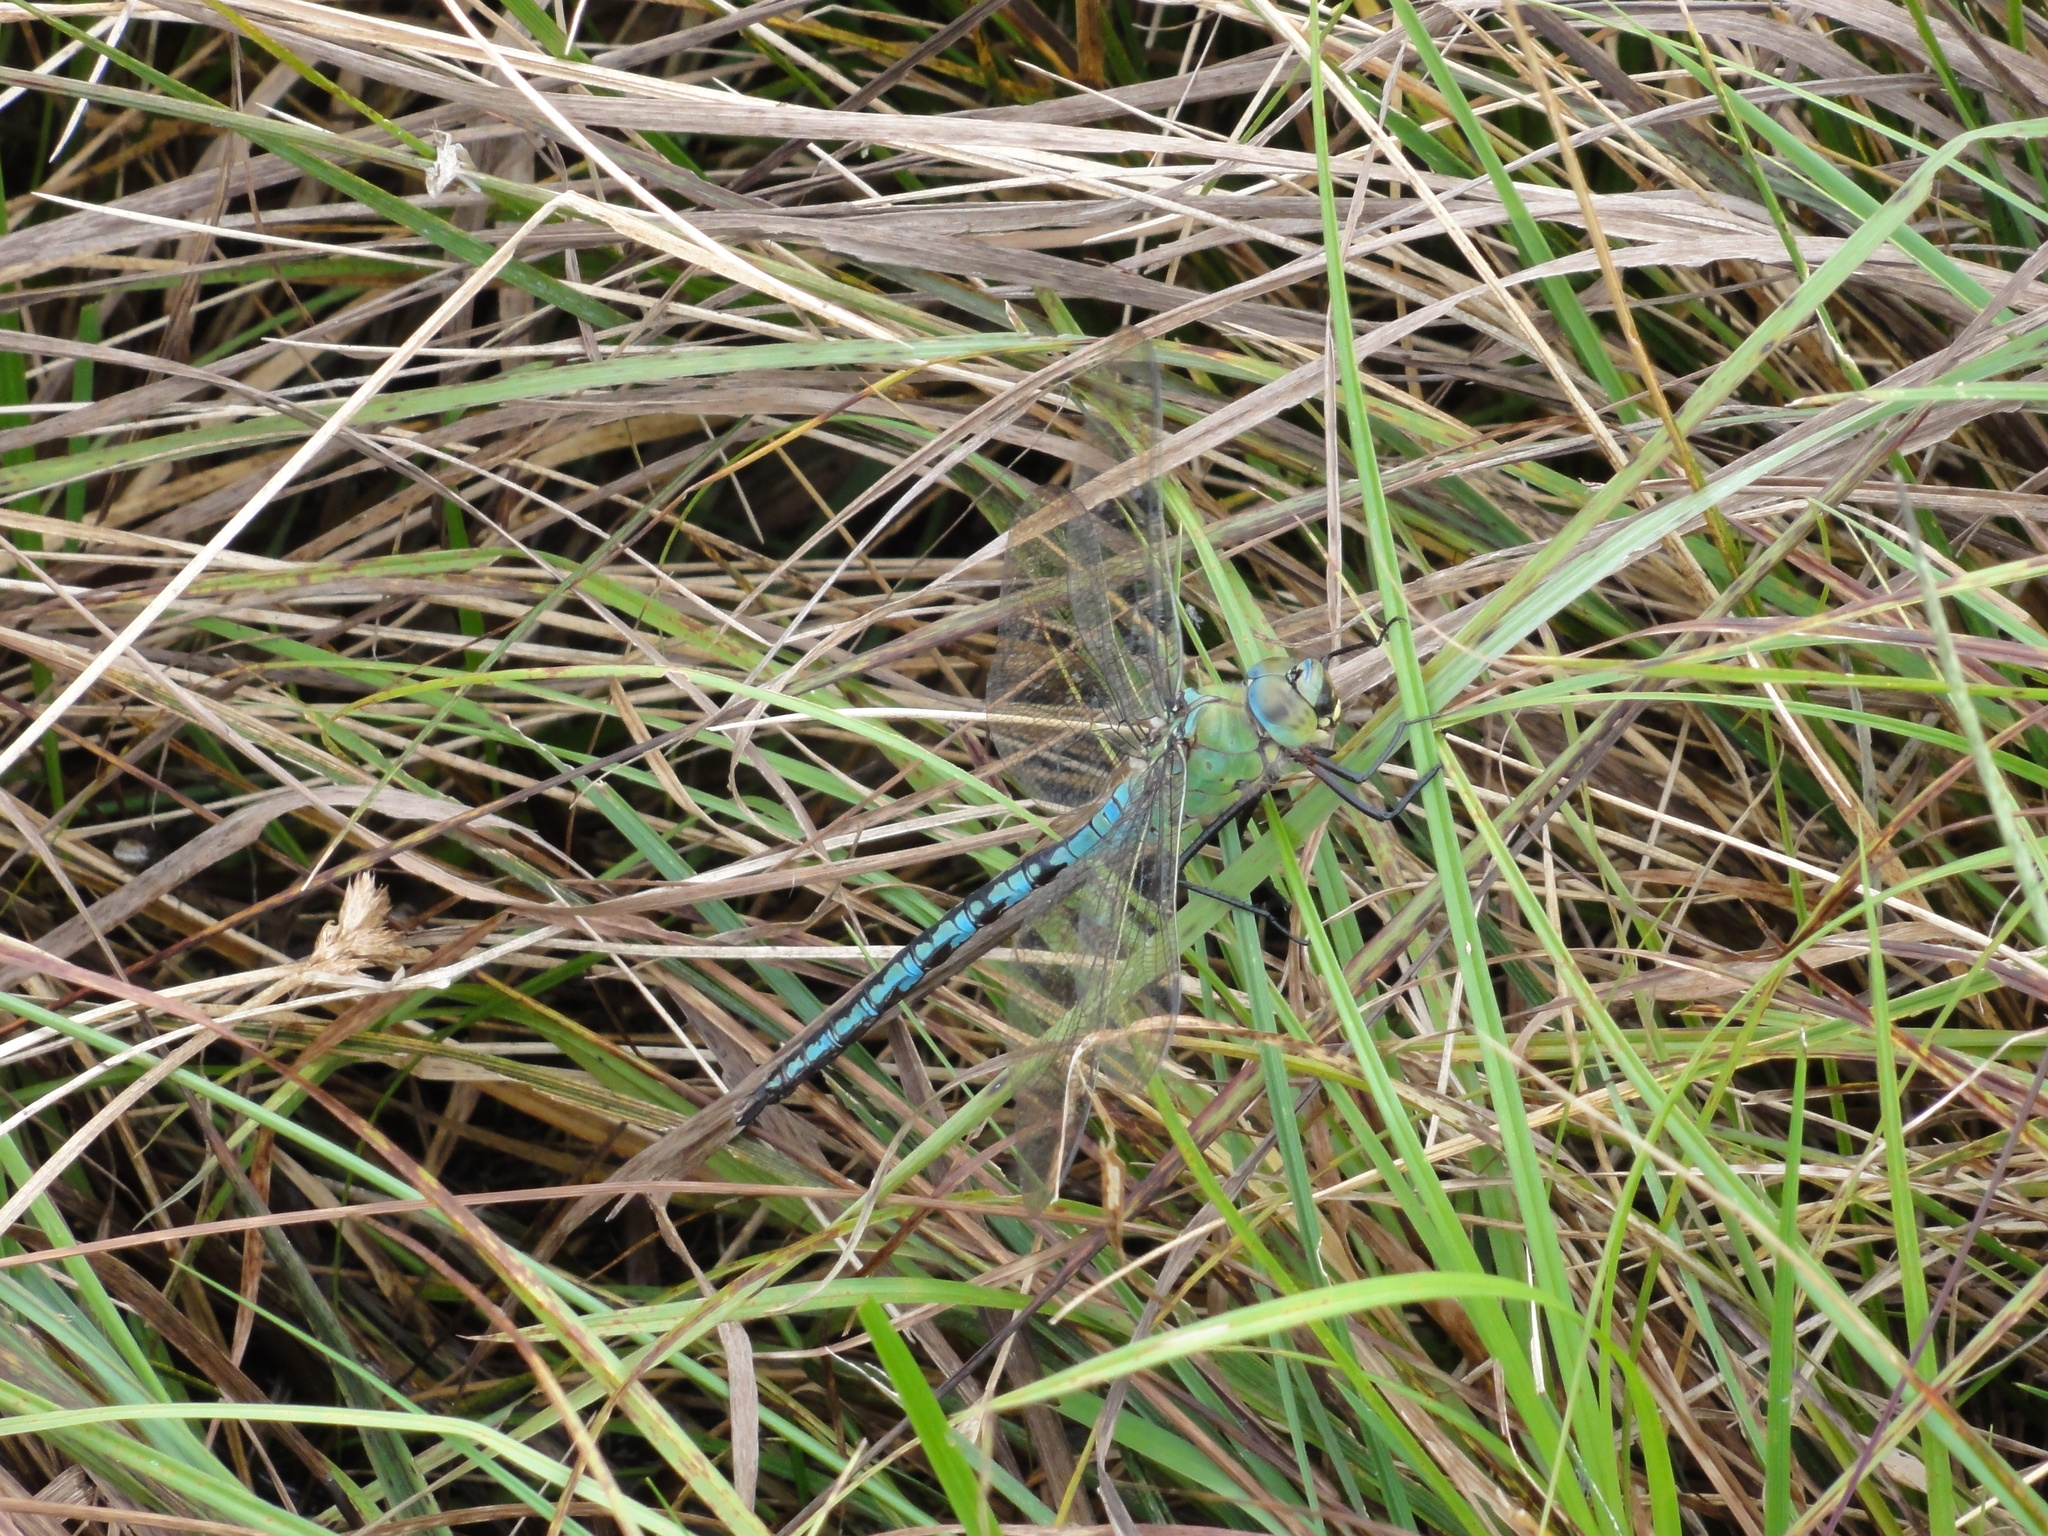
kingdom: Animalia
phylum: Arthropoda
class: Insecta
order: Odonata
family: Aeshnidae
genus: Anax
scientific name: Anax imperator
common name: Emperor dragonfly
